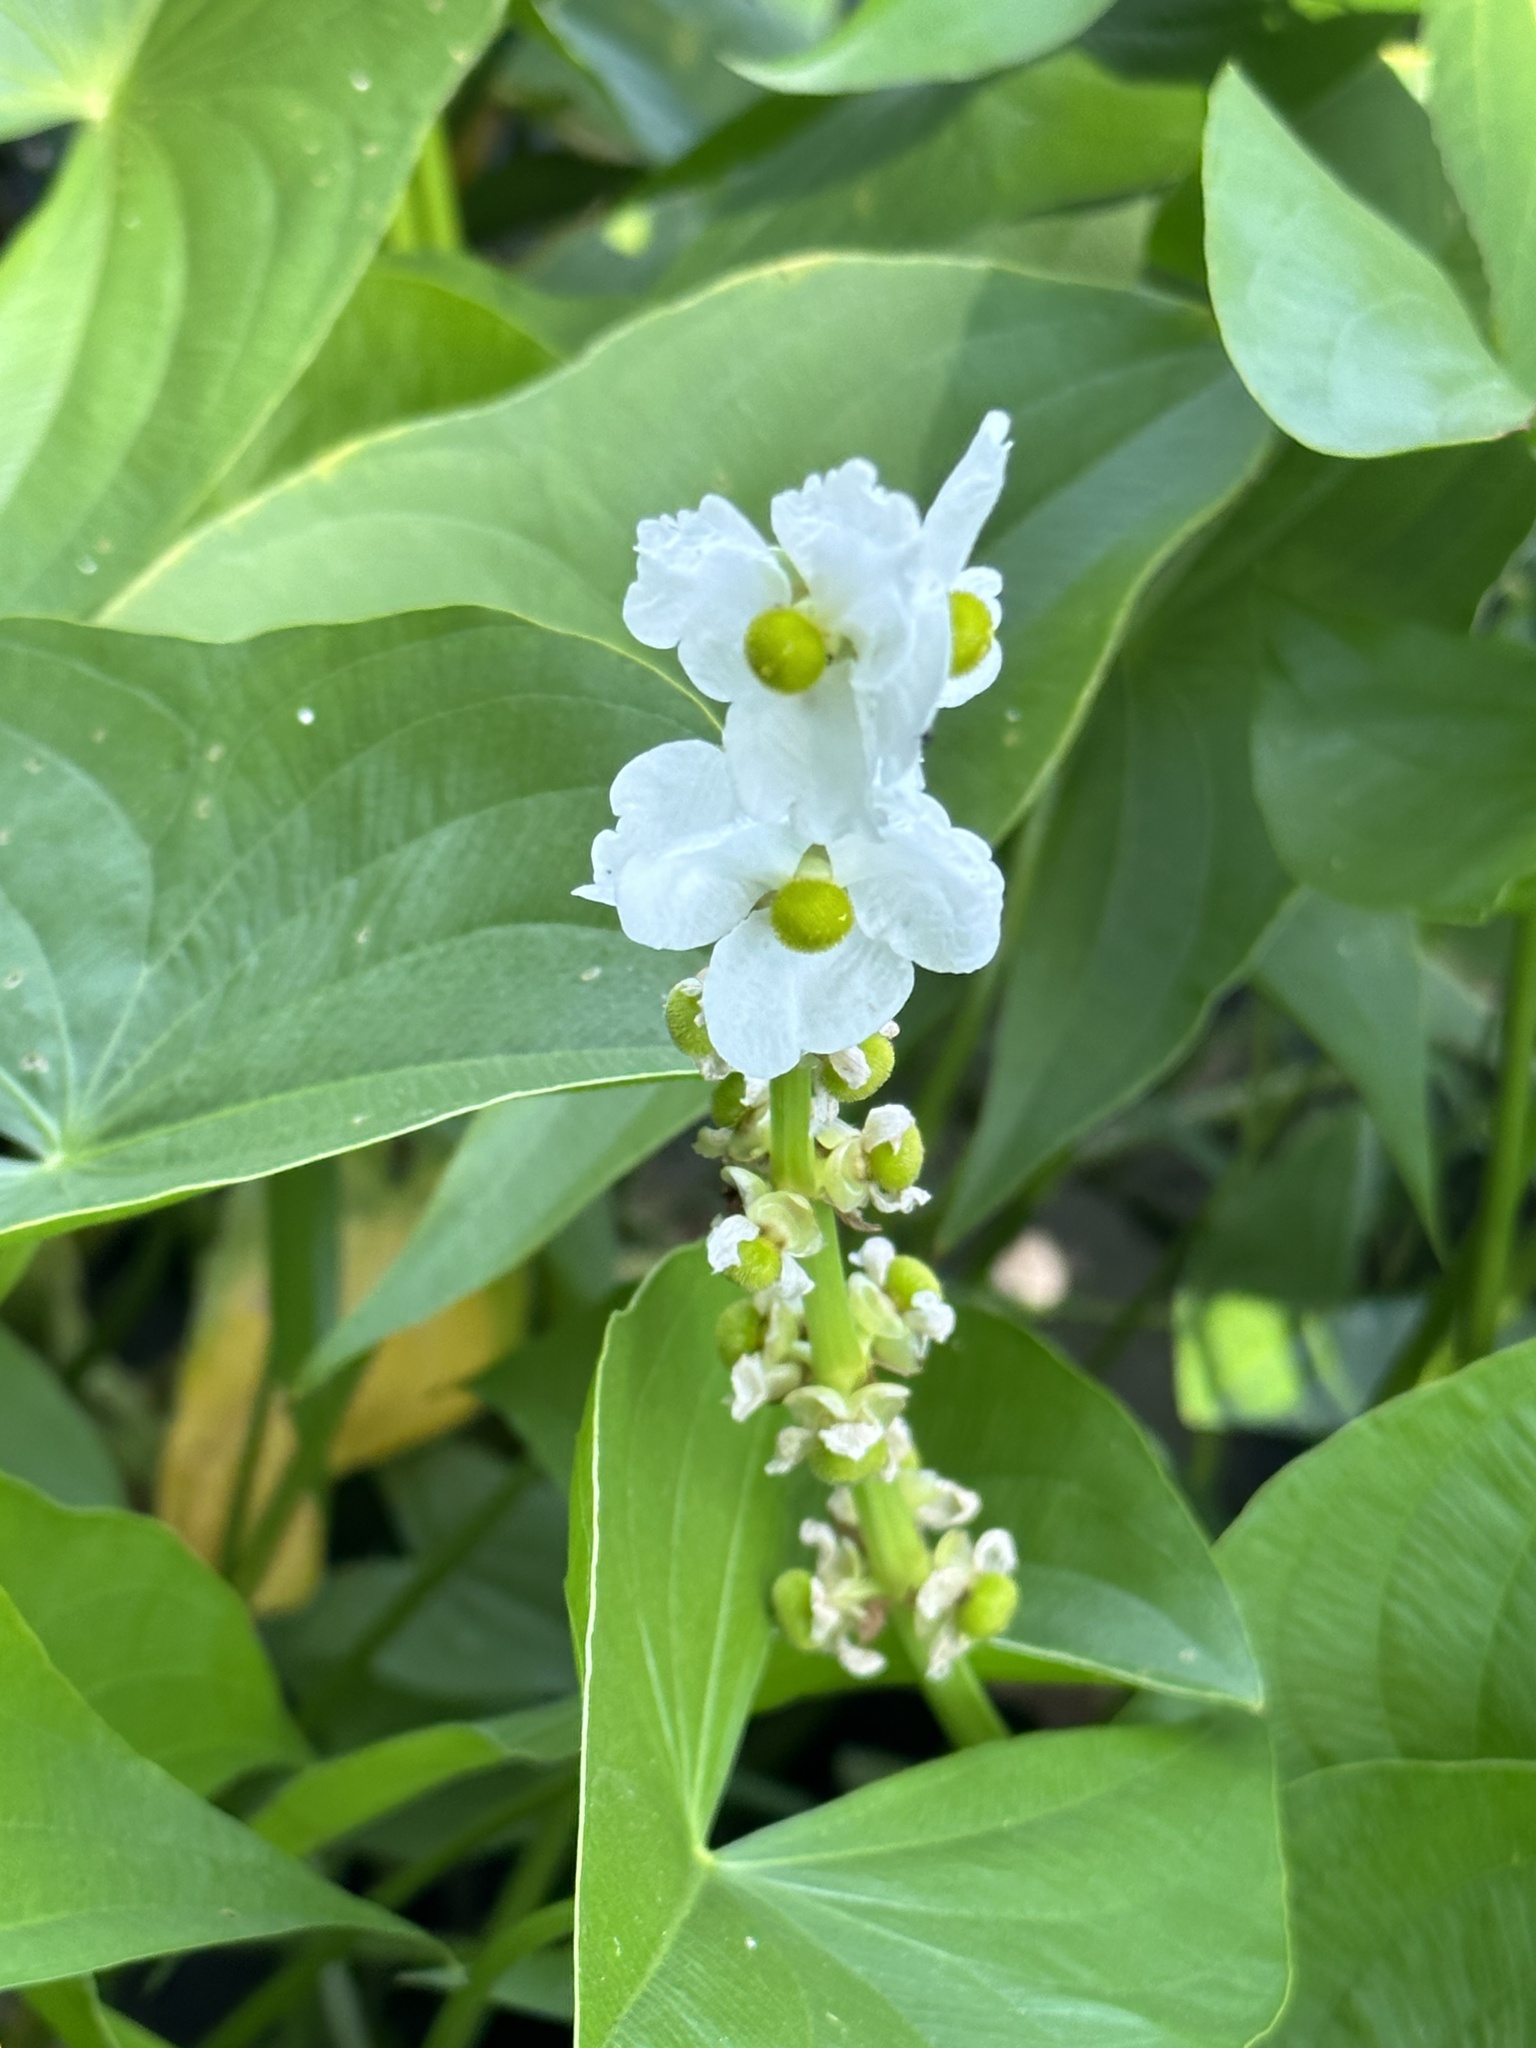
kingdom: Plantae
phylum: Tracheophyta
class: Liliopsida
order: Alismatales
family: Alismataceae
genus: Sagittaria
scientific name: Sagittaria latifolia
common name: Duck-potato
